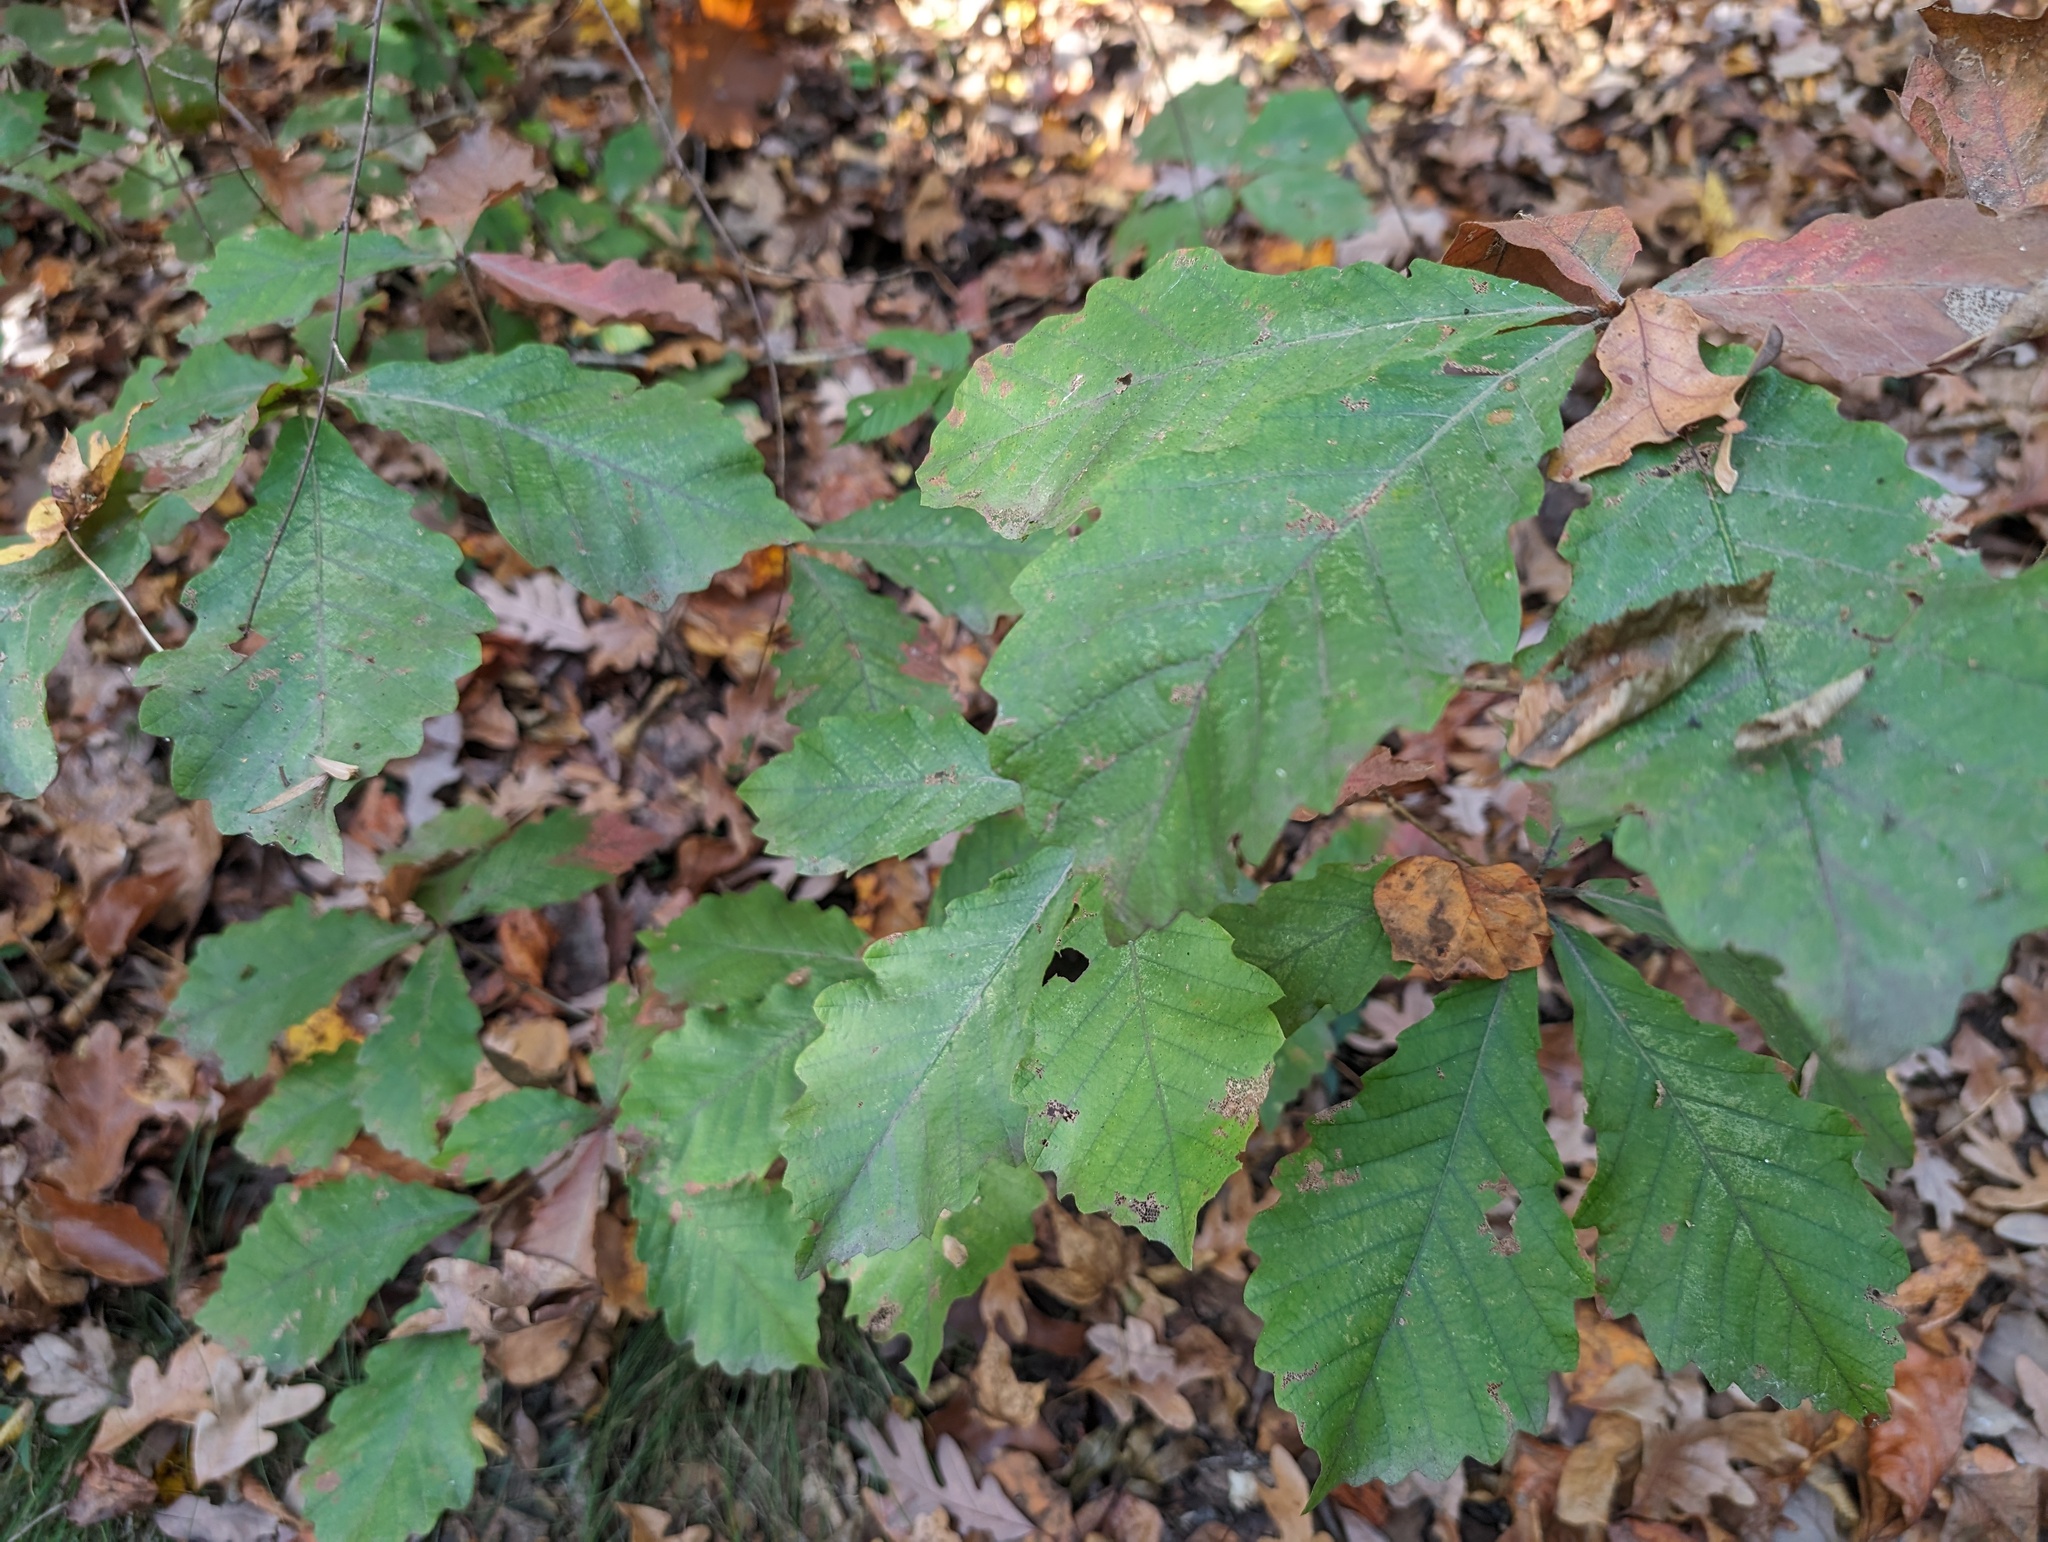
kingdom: Plantae
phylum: Tracheophyta
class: Magnoliopsida
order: Fagales
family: Fagaceae
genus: Quercus
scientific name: Quercus montana
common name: Chestnut oak
